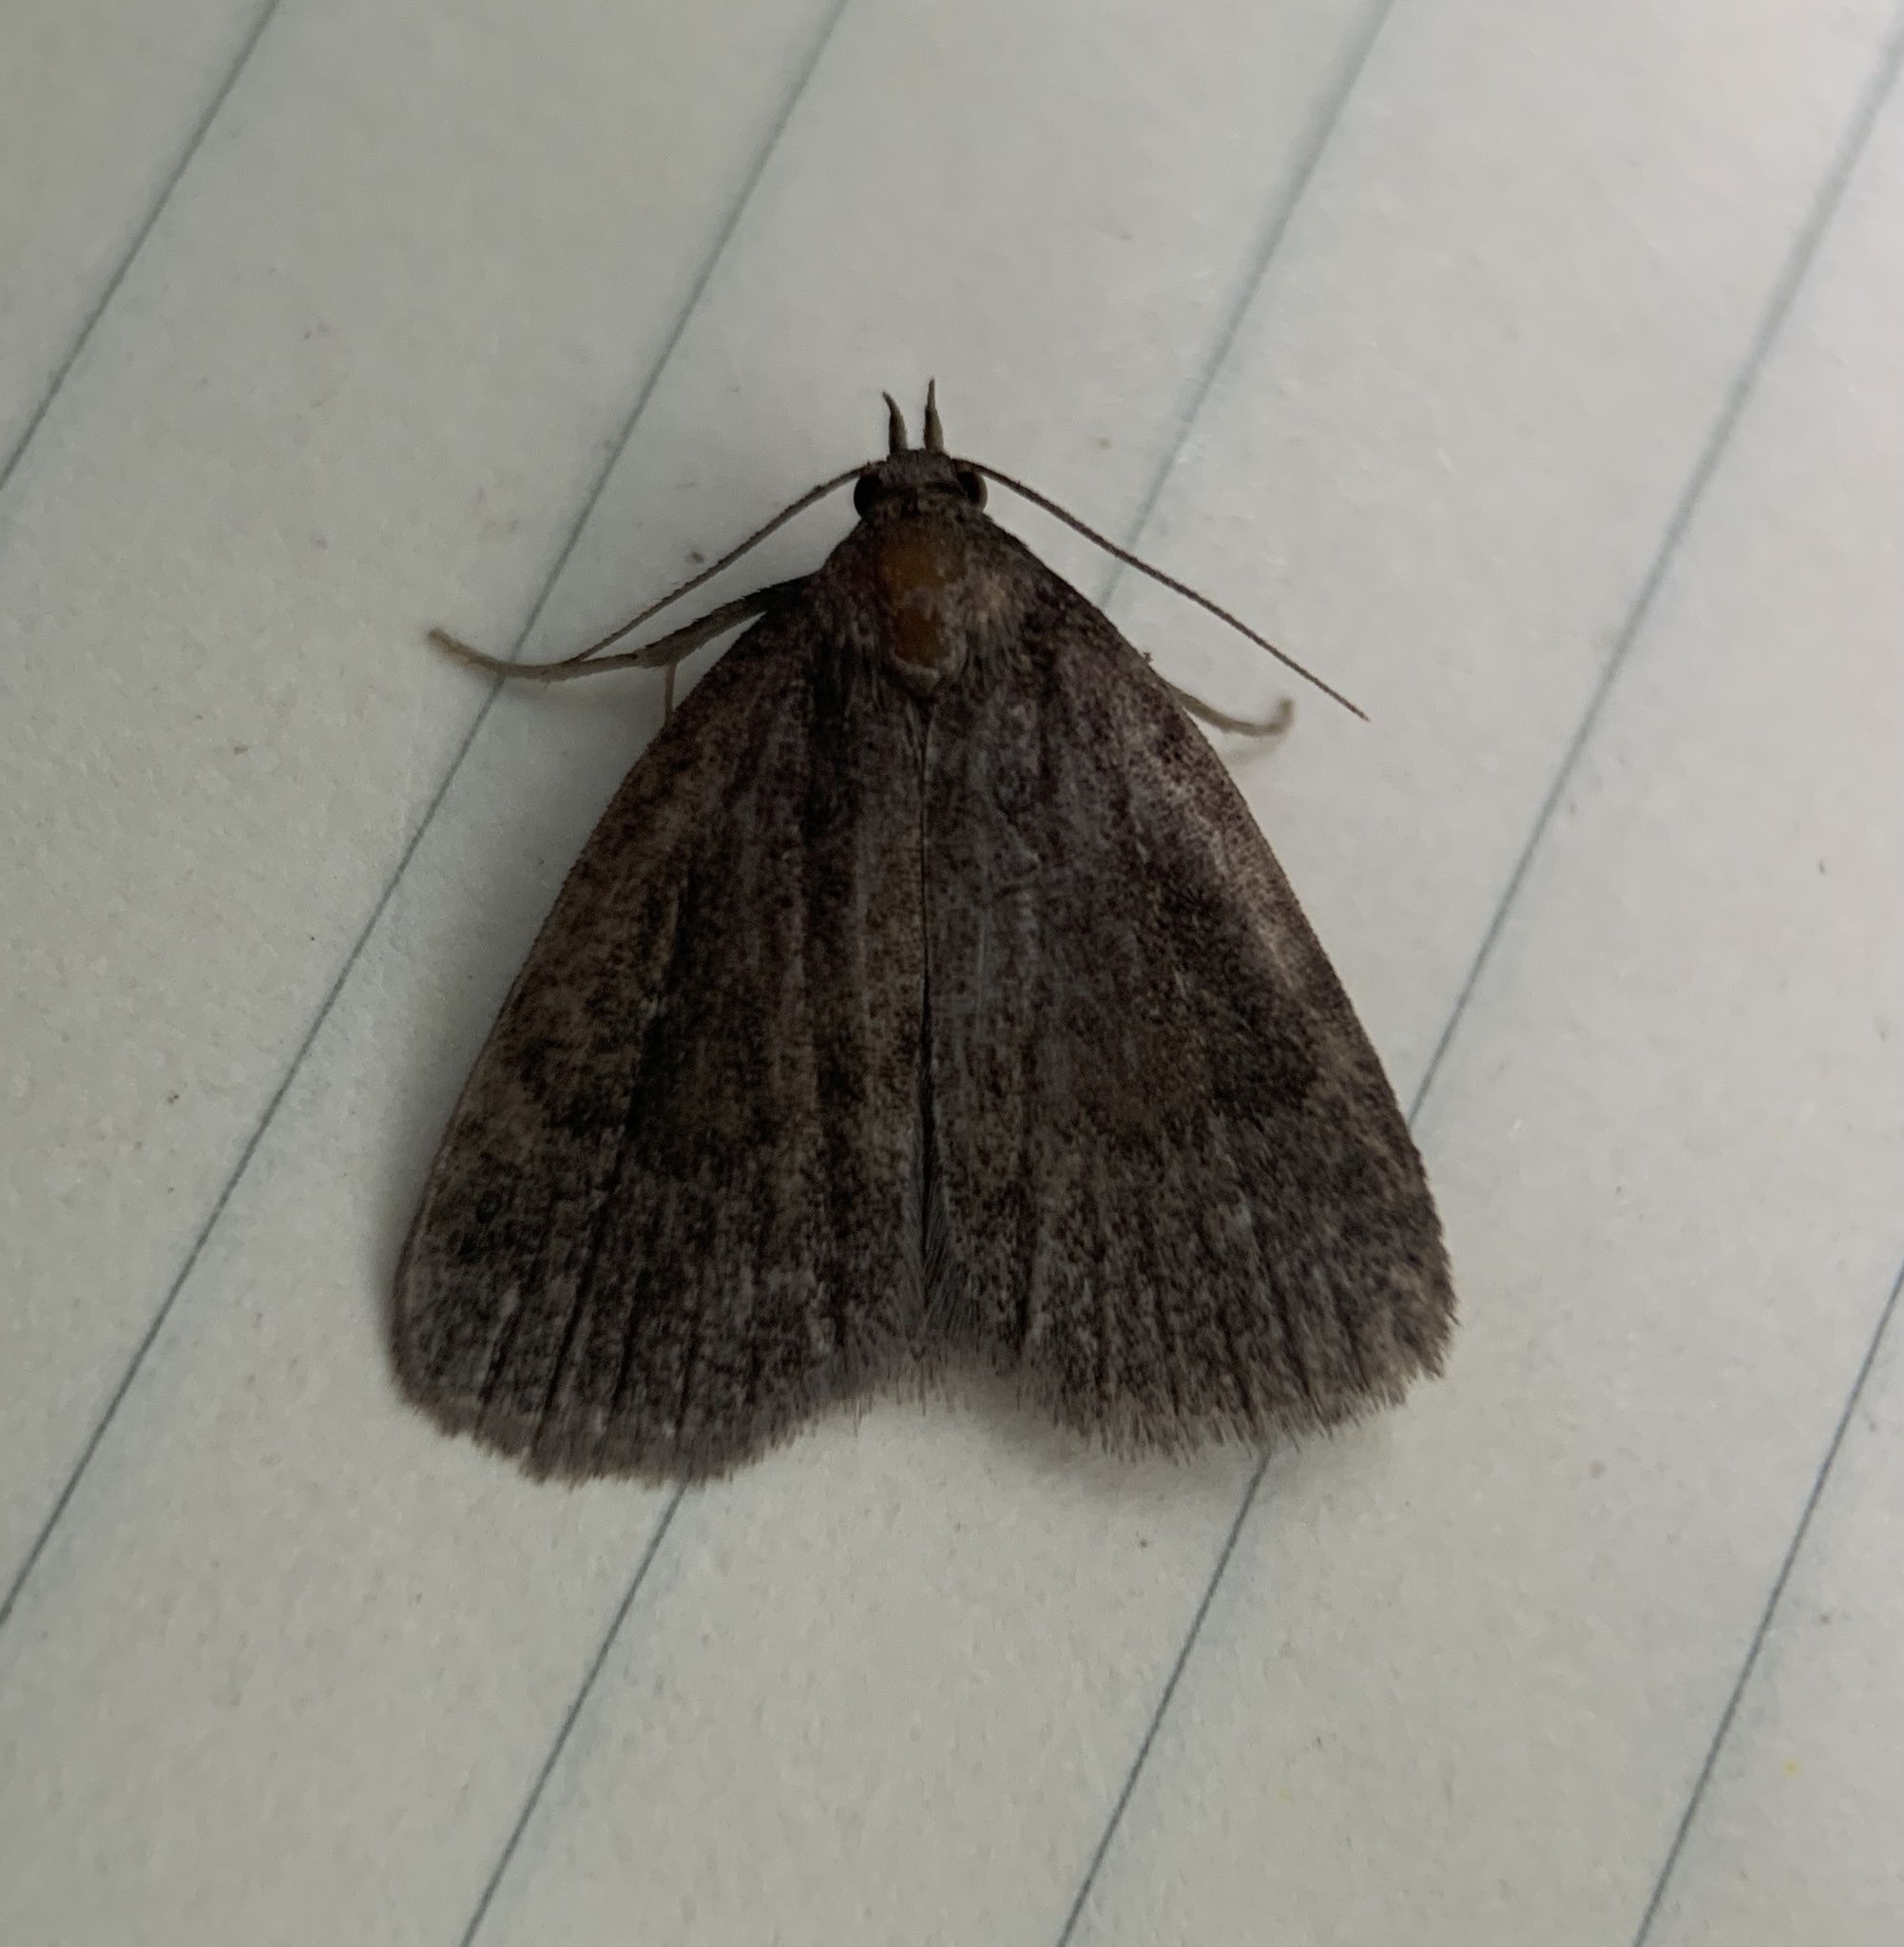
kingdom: Animalia
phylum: Arthropoda
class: Insecta
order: Lepidoptera
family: Erebidae
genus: Idia
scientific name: Idia rotundalis
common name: Rotund idia moth
